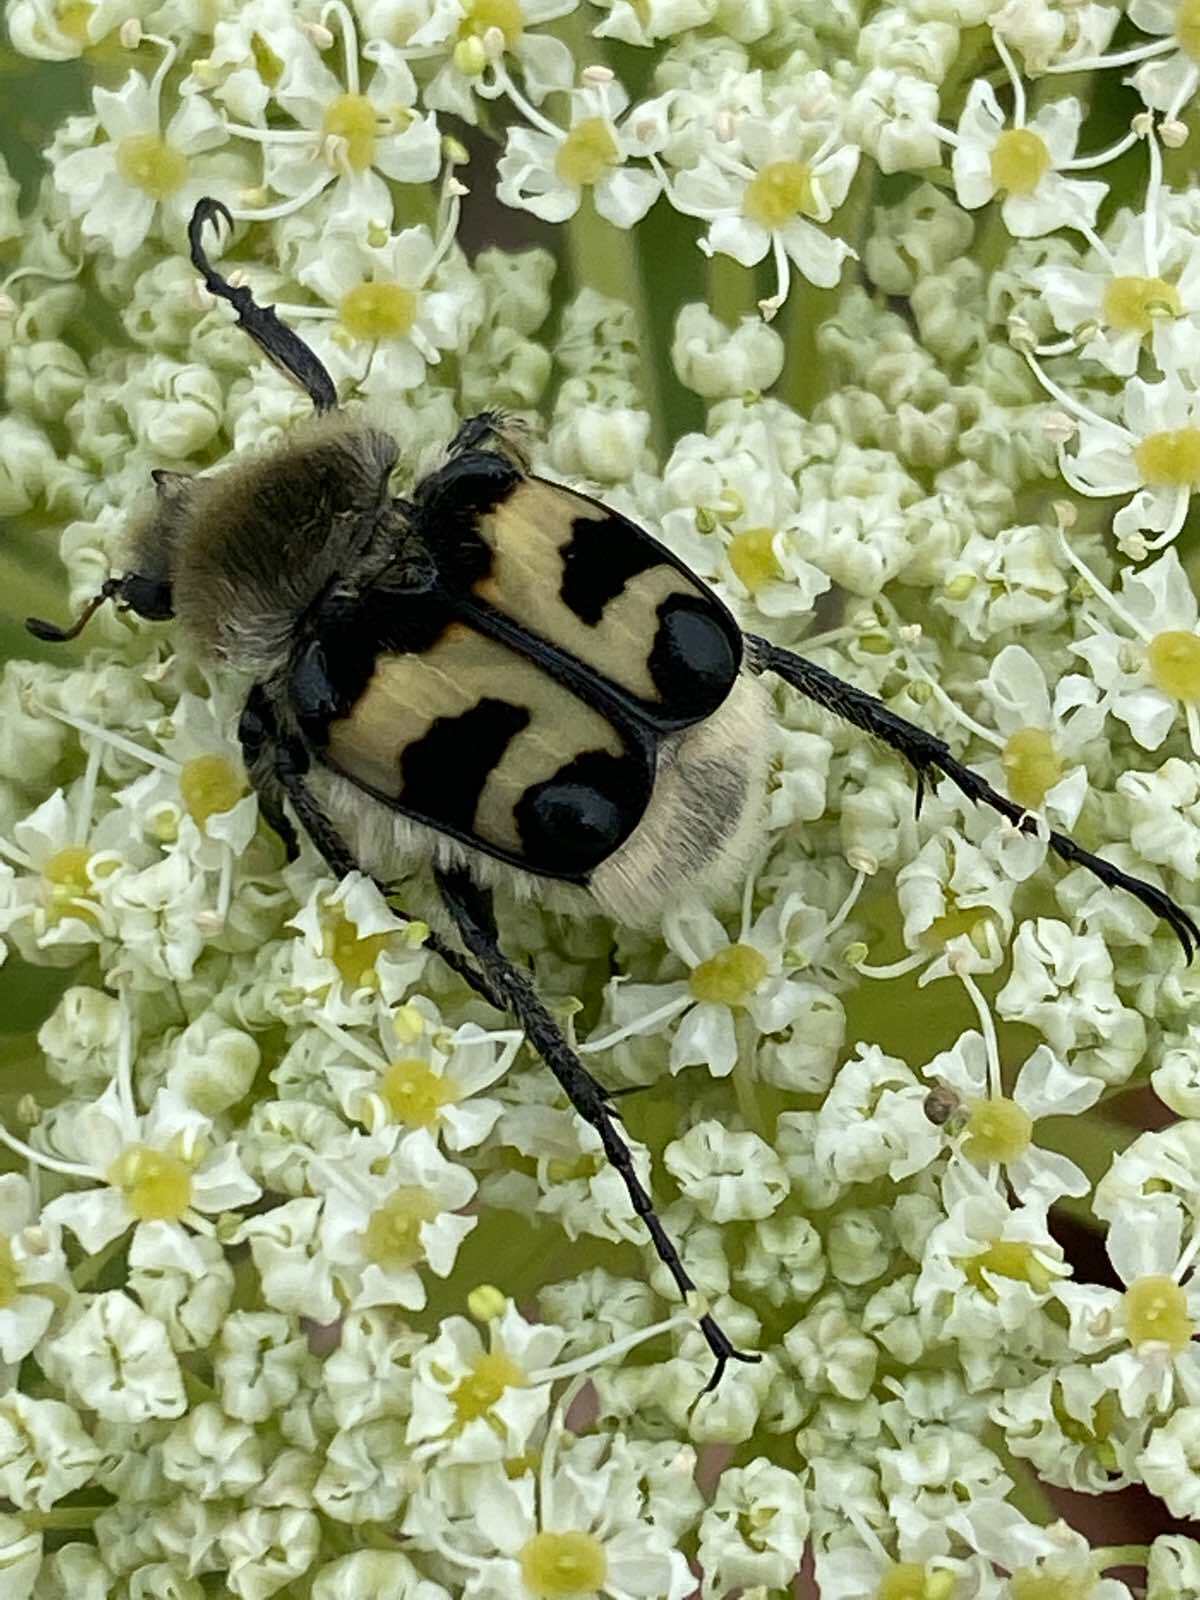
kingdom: Animalia
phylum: Arthropoda
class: Insecta
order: Coleoptera
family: Scarabaeidae
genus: Trichius
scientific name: Trichius fasciatus
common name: Bee beetle
